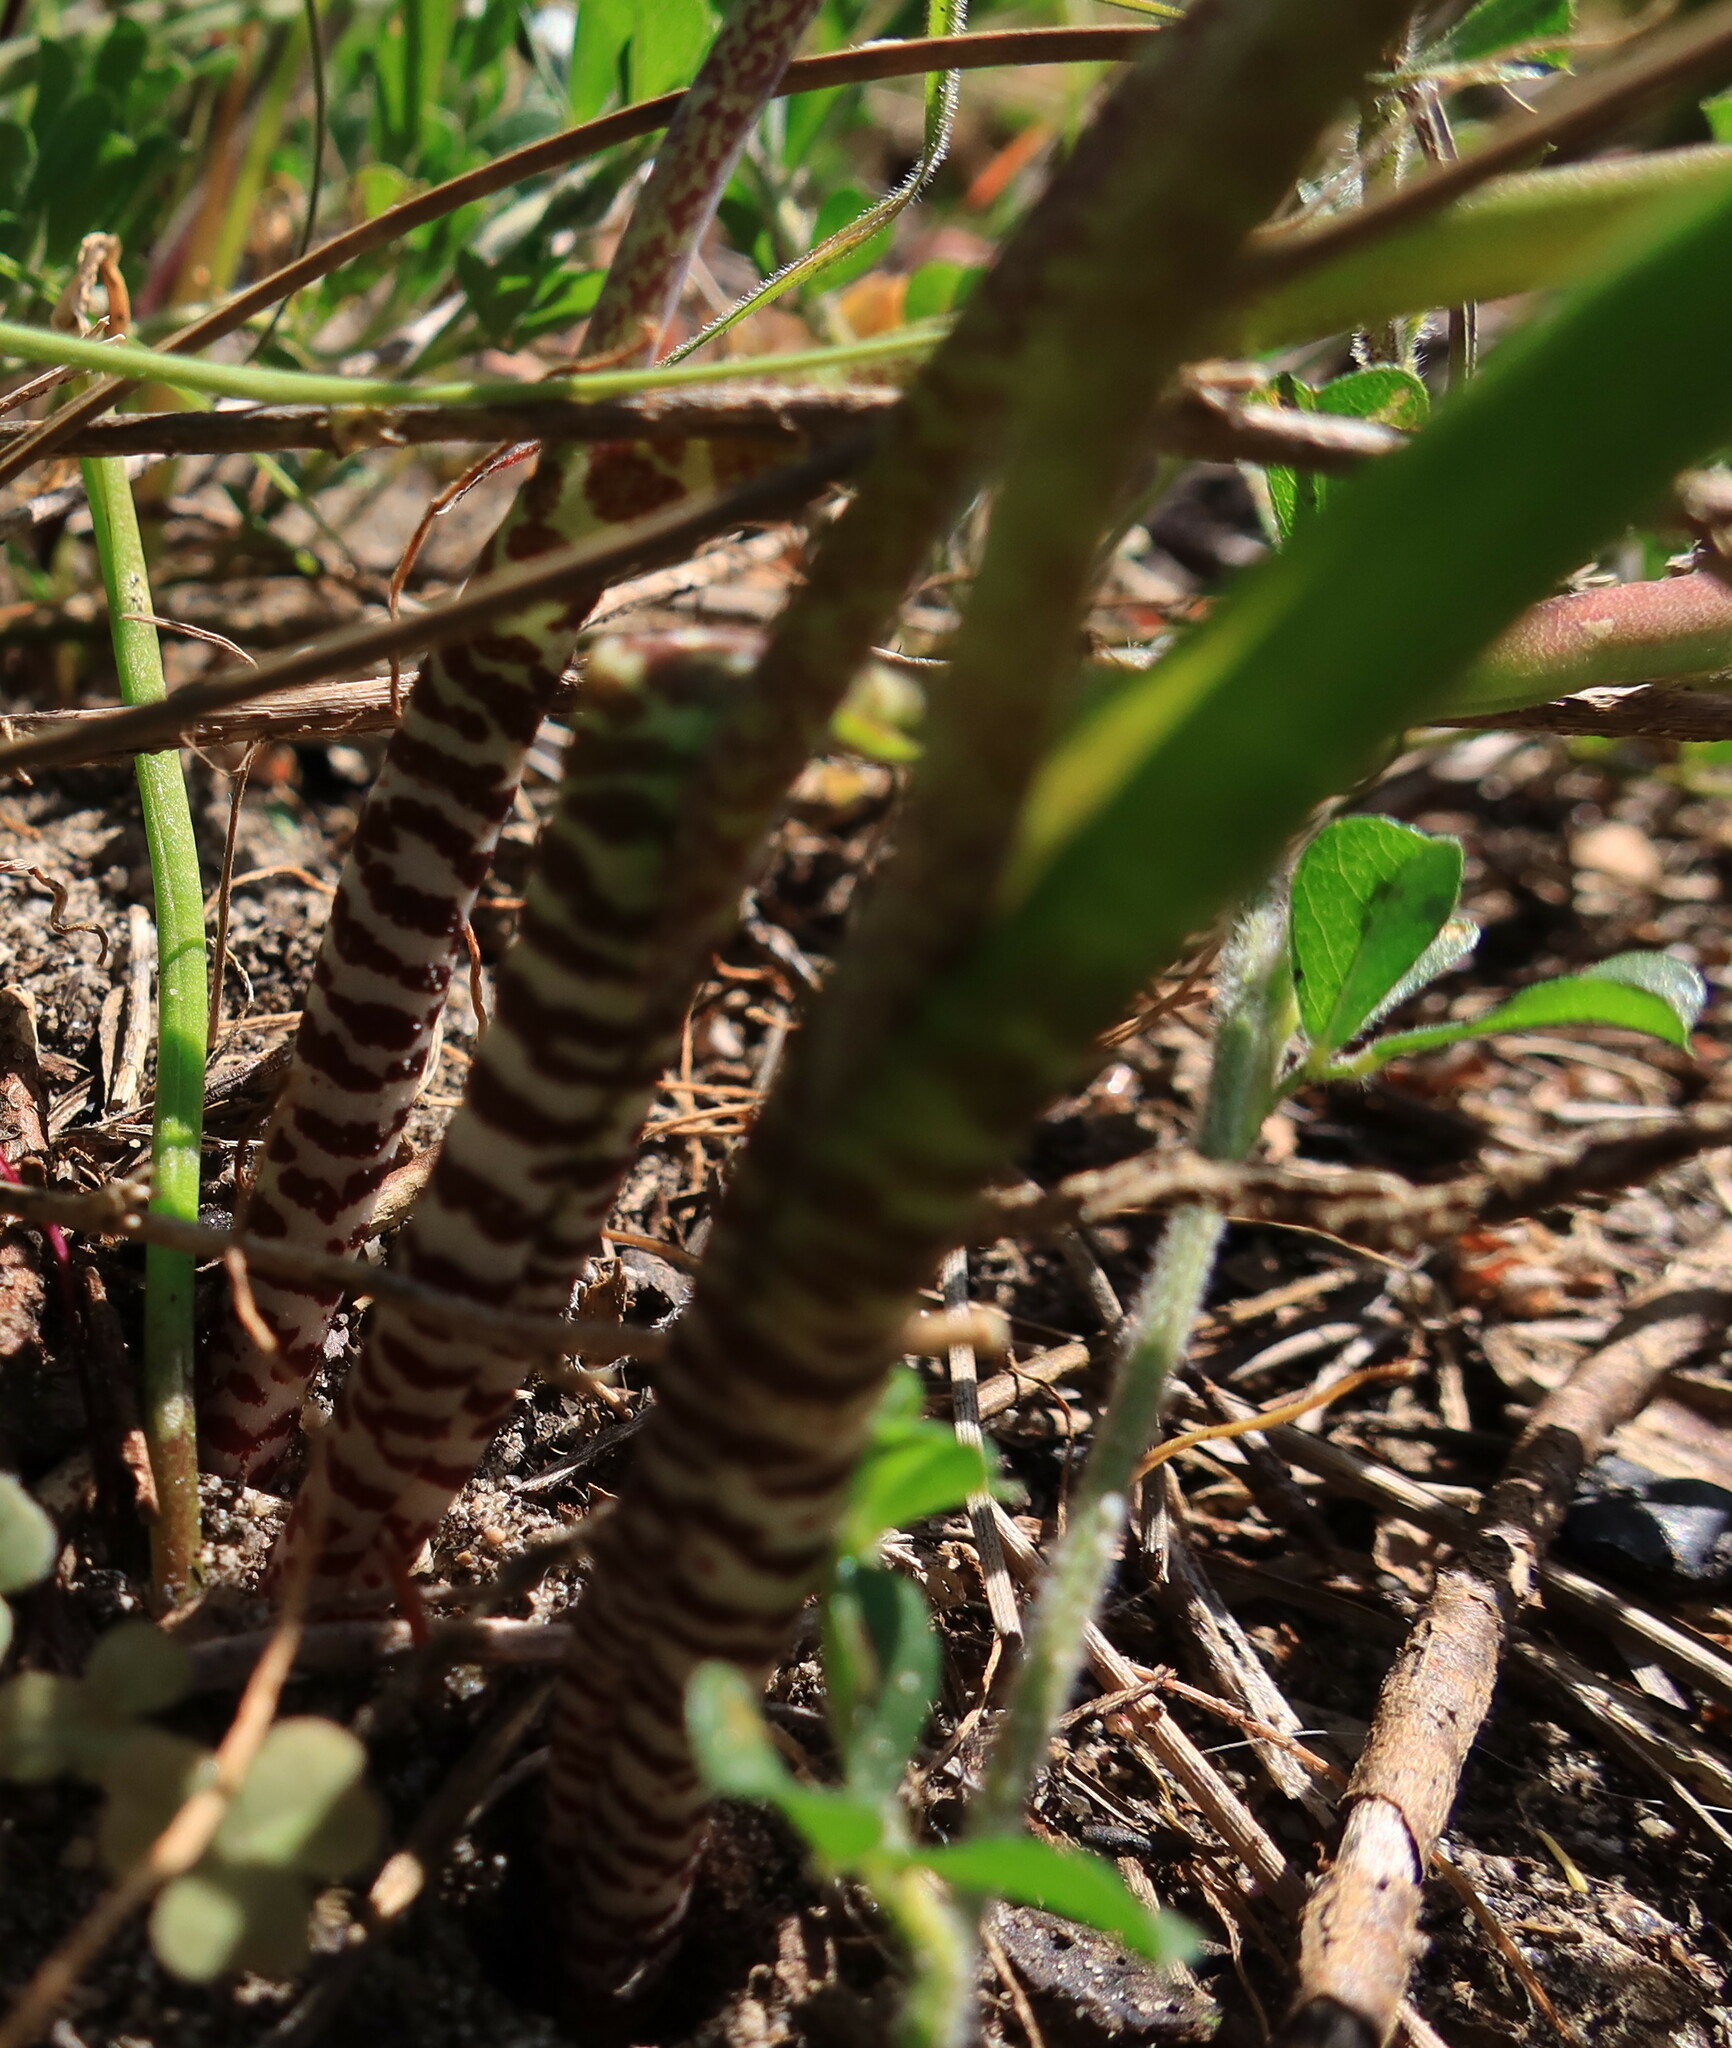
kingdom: Plantae
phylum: Tracheophyta
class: Liliopsida
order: Asparagales
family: Asparagaceae
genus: Lachenalia
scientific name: Lachenalia unifolia
